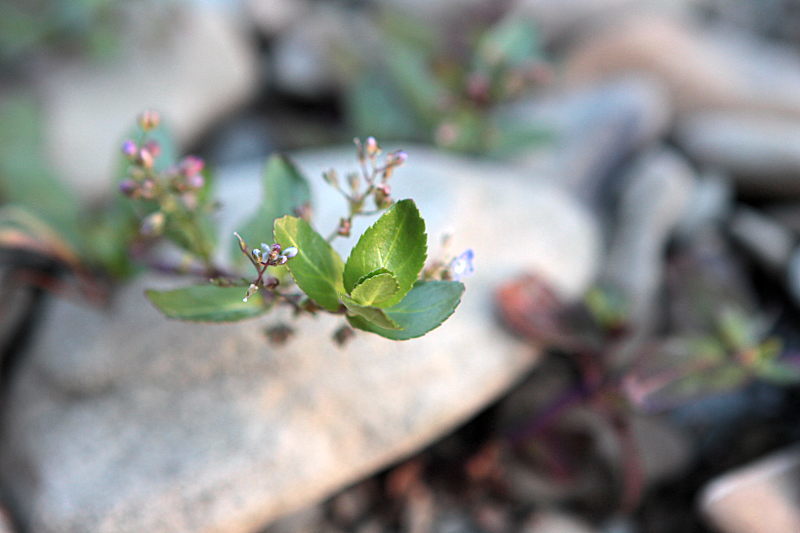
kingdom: Plantae
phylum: Tracheophyta
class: Magnoliopsida
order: Lamiales
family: Plantaginaceae
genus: Veronica
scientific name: Veronica beccabunga
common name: Brooklime
